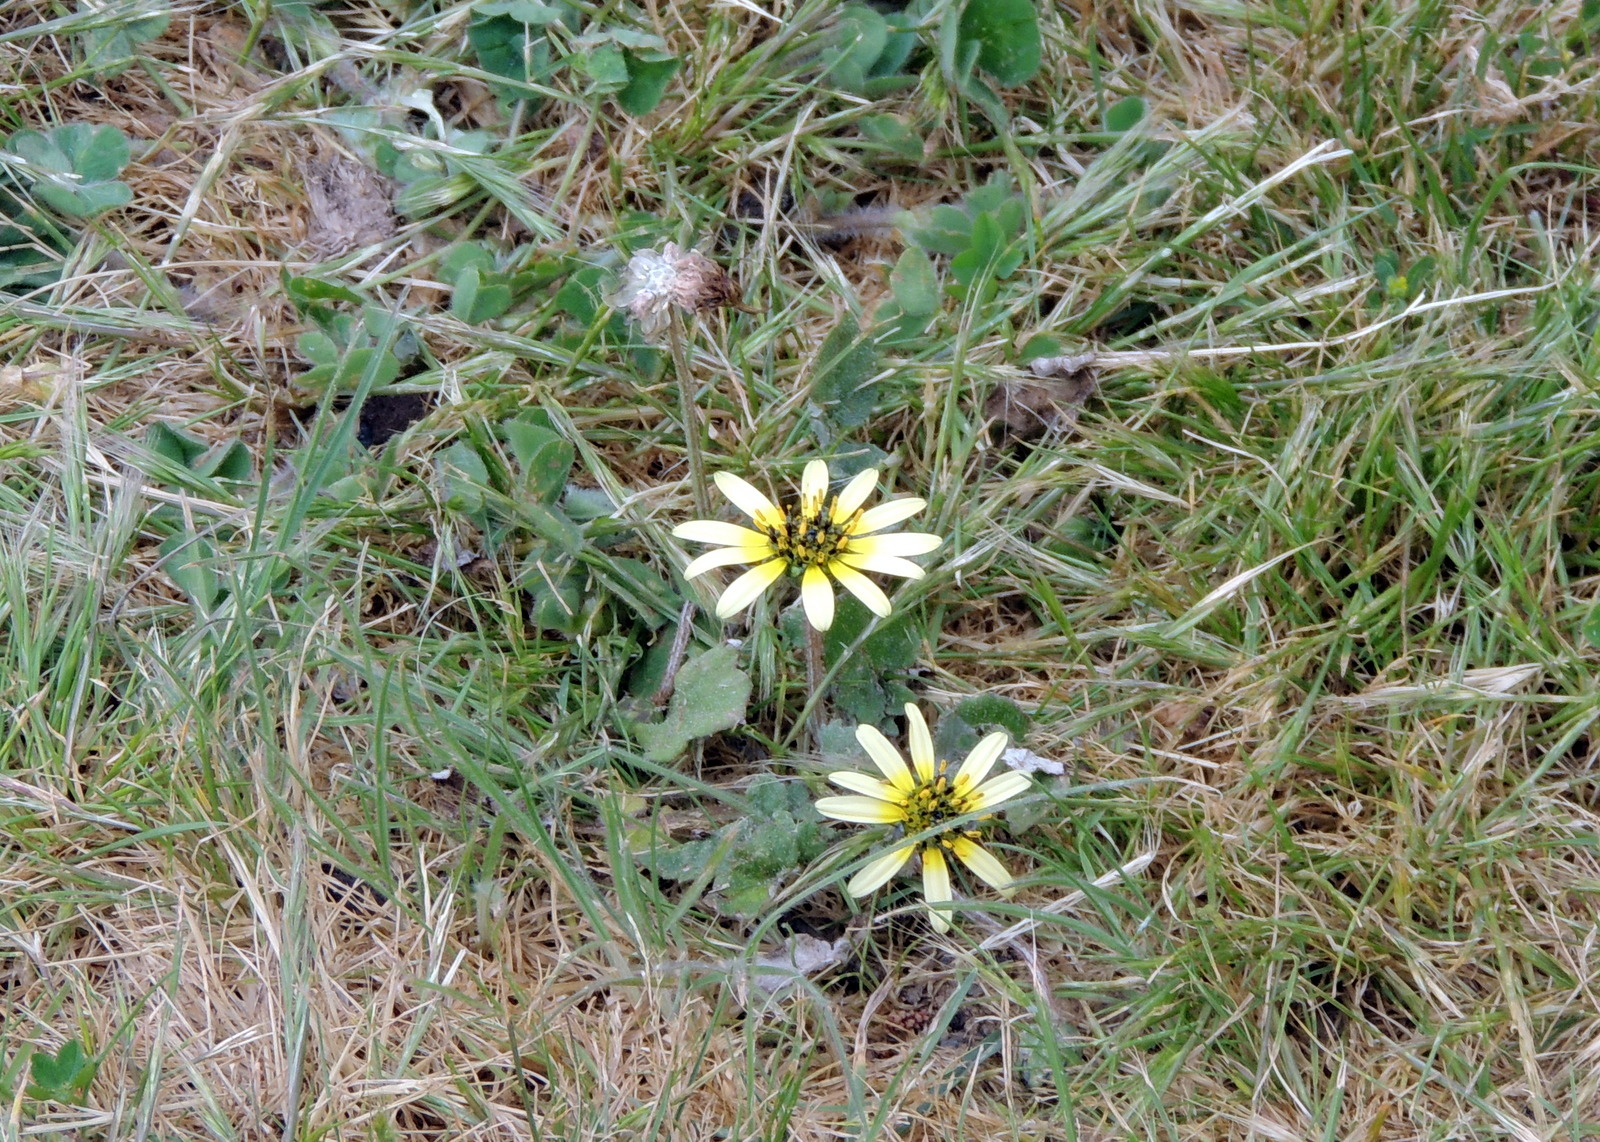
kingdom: Plantae
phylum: Tracheophyta
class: Magnoliopsida
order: Asterales
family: Asteraceae
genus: Arctotheca
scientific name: Arctotheca calendula
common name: Capeweed
